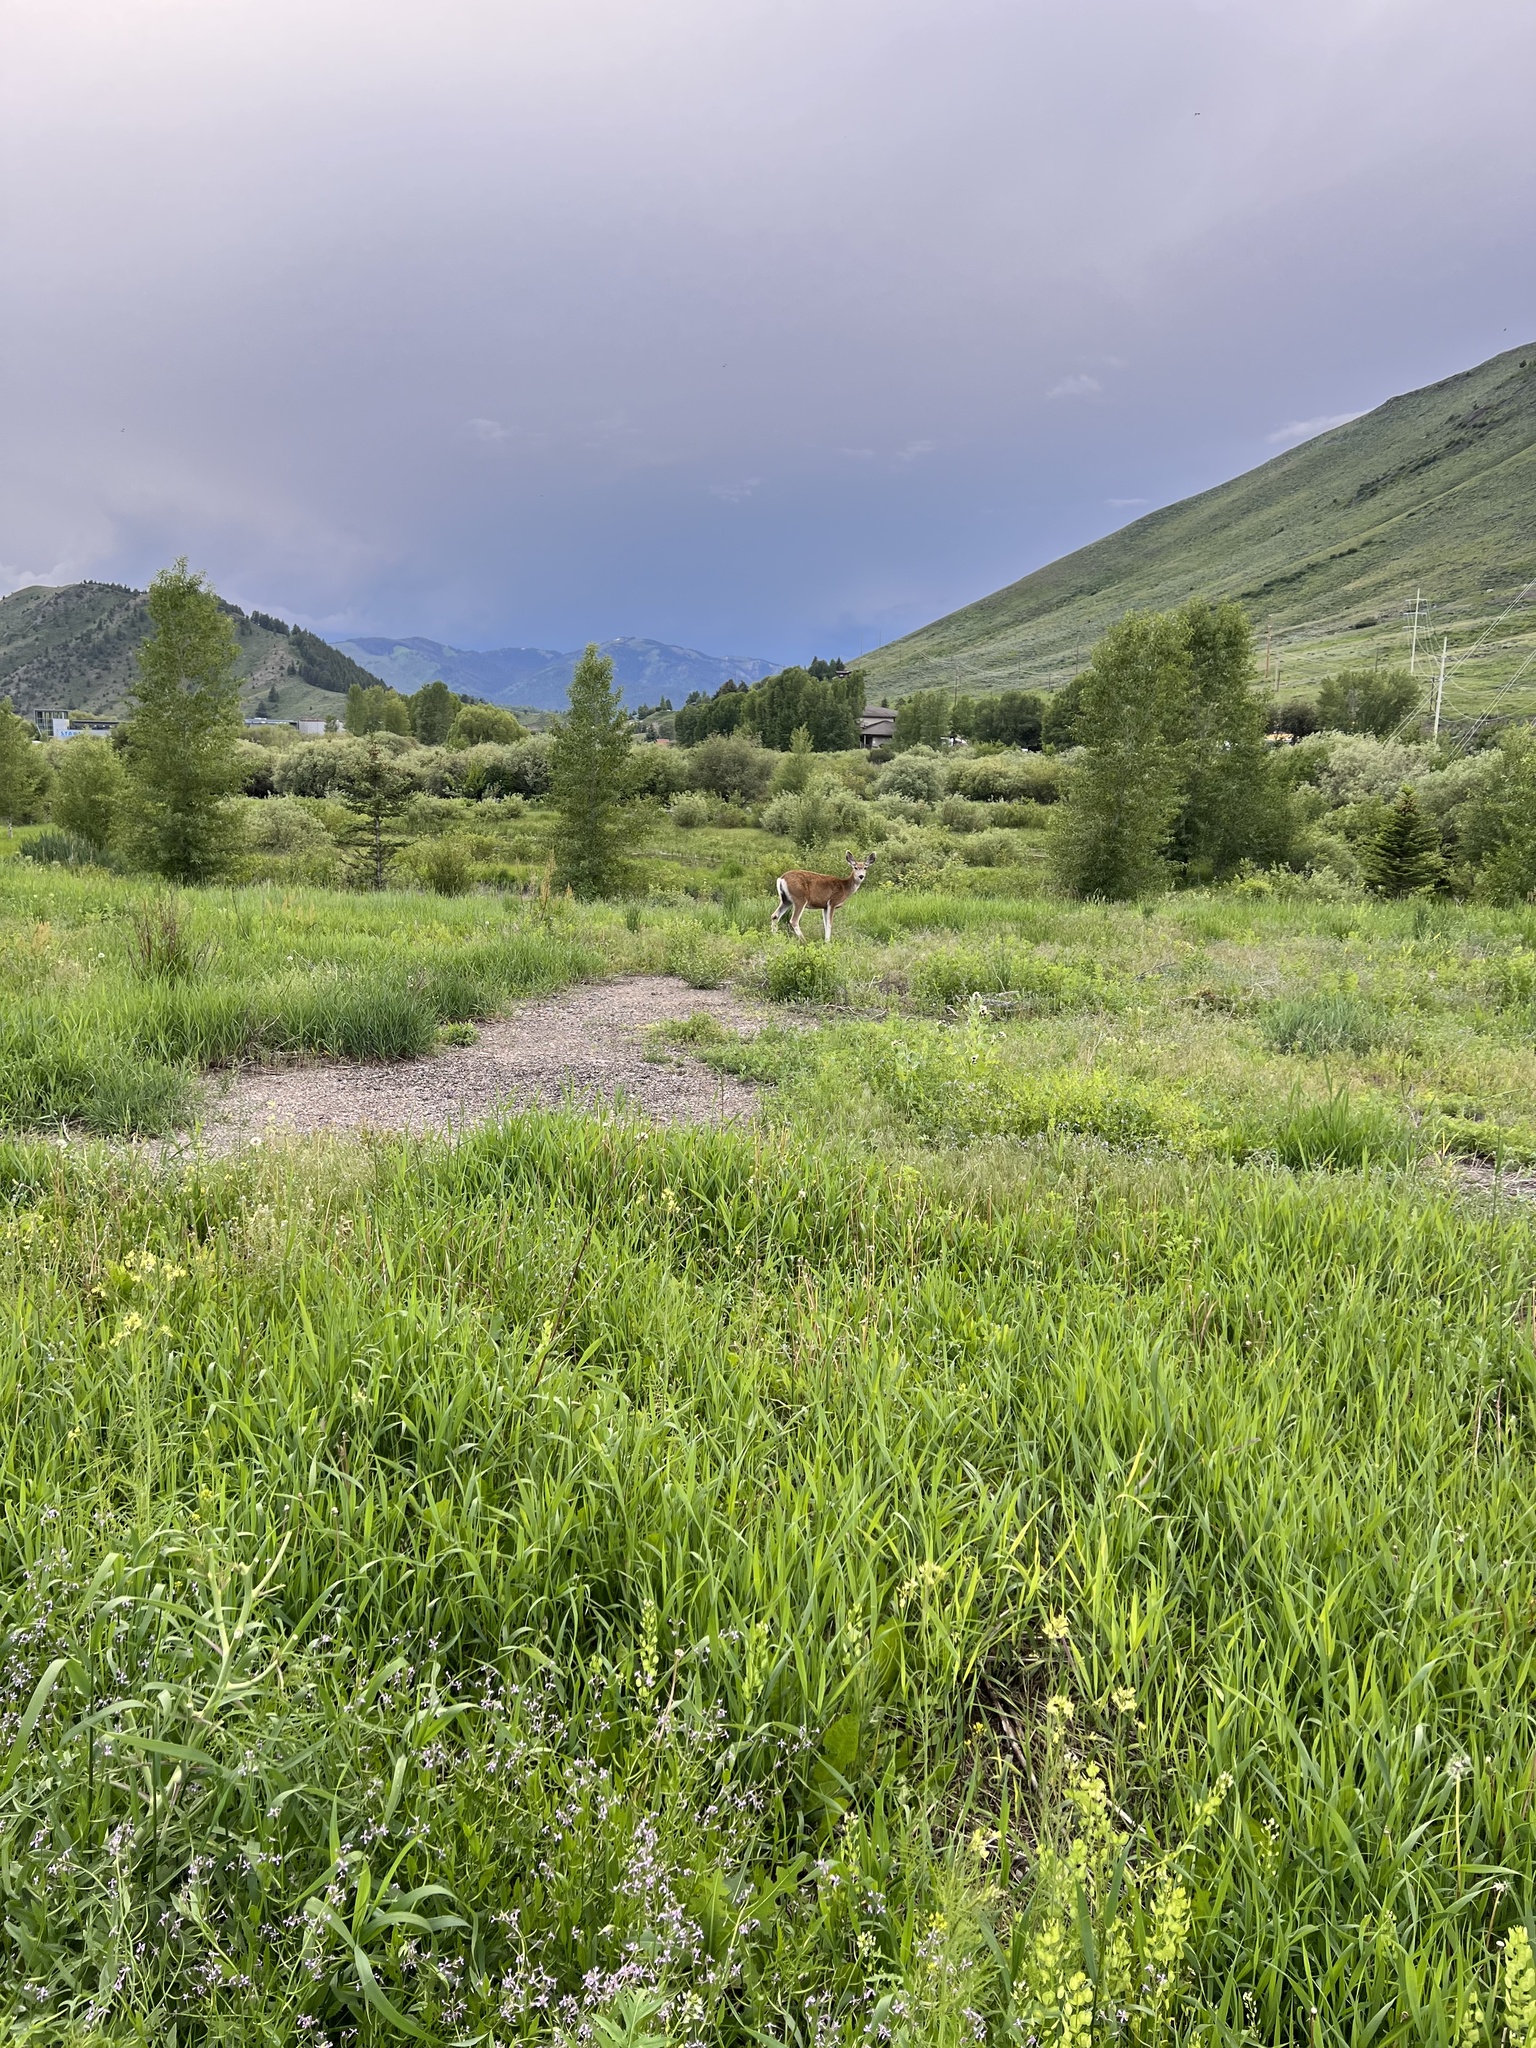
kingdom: Animalia
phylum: Chordata
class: Mammalia
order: Artiodactyla
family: Cervidae
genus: Odocoileus
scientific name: Odocoileus hemionus
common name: Mule deer
